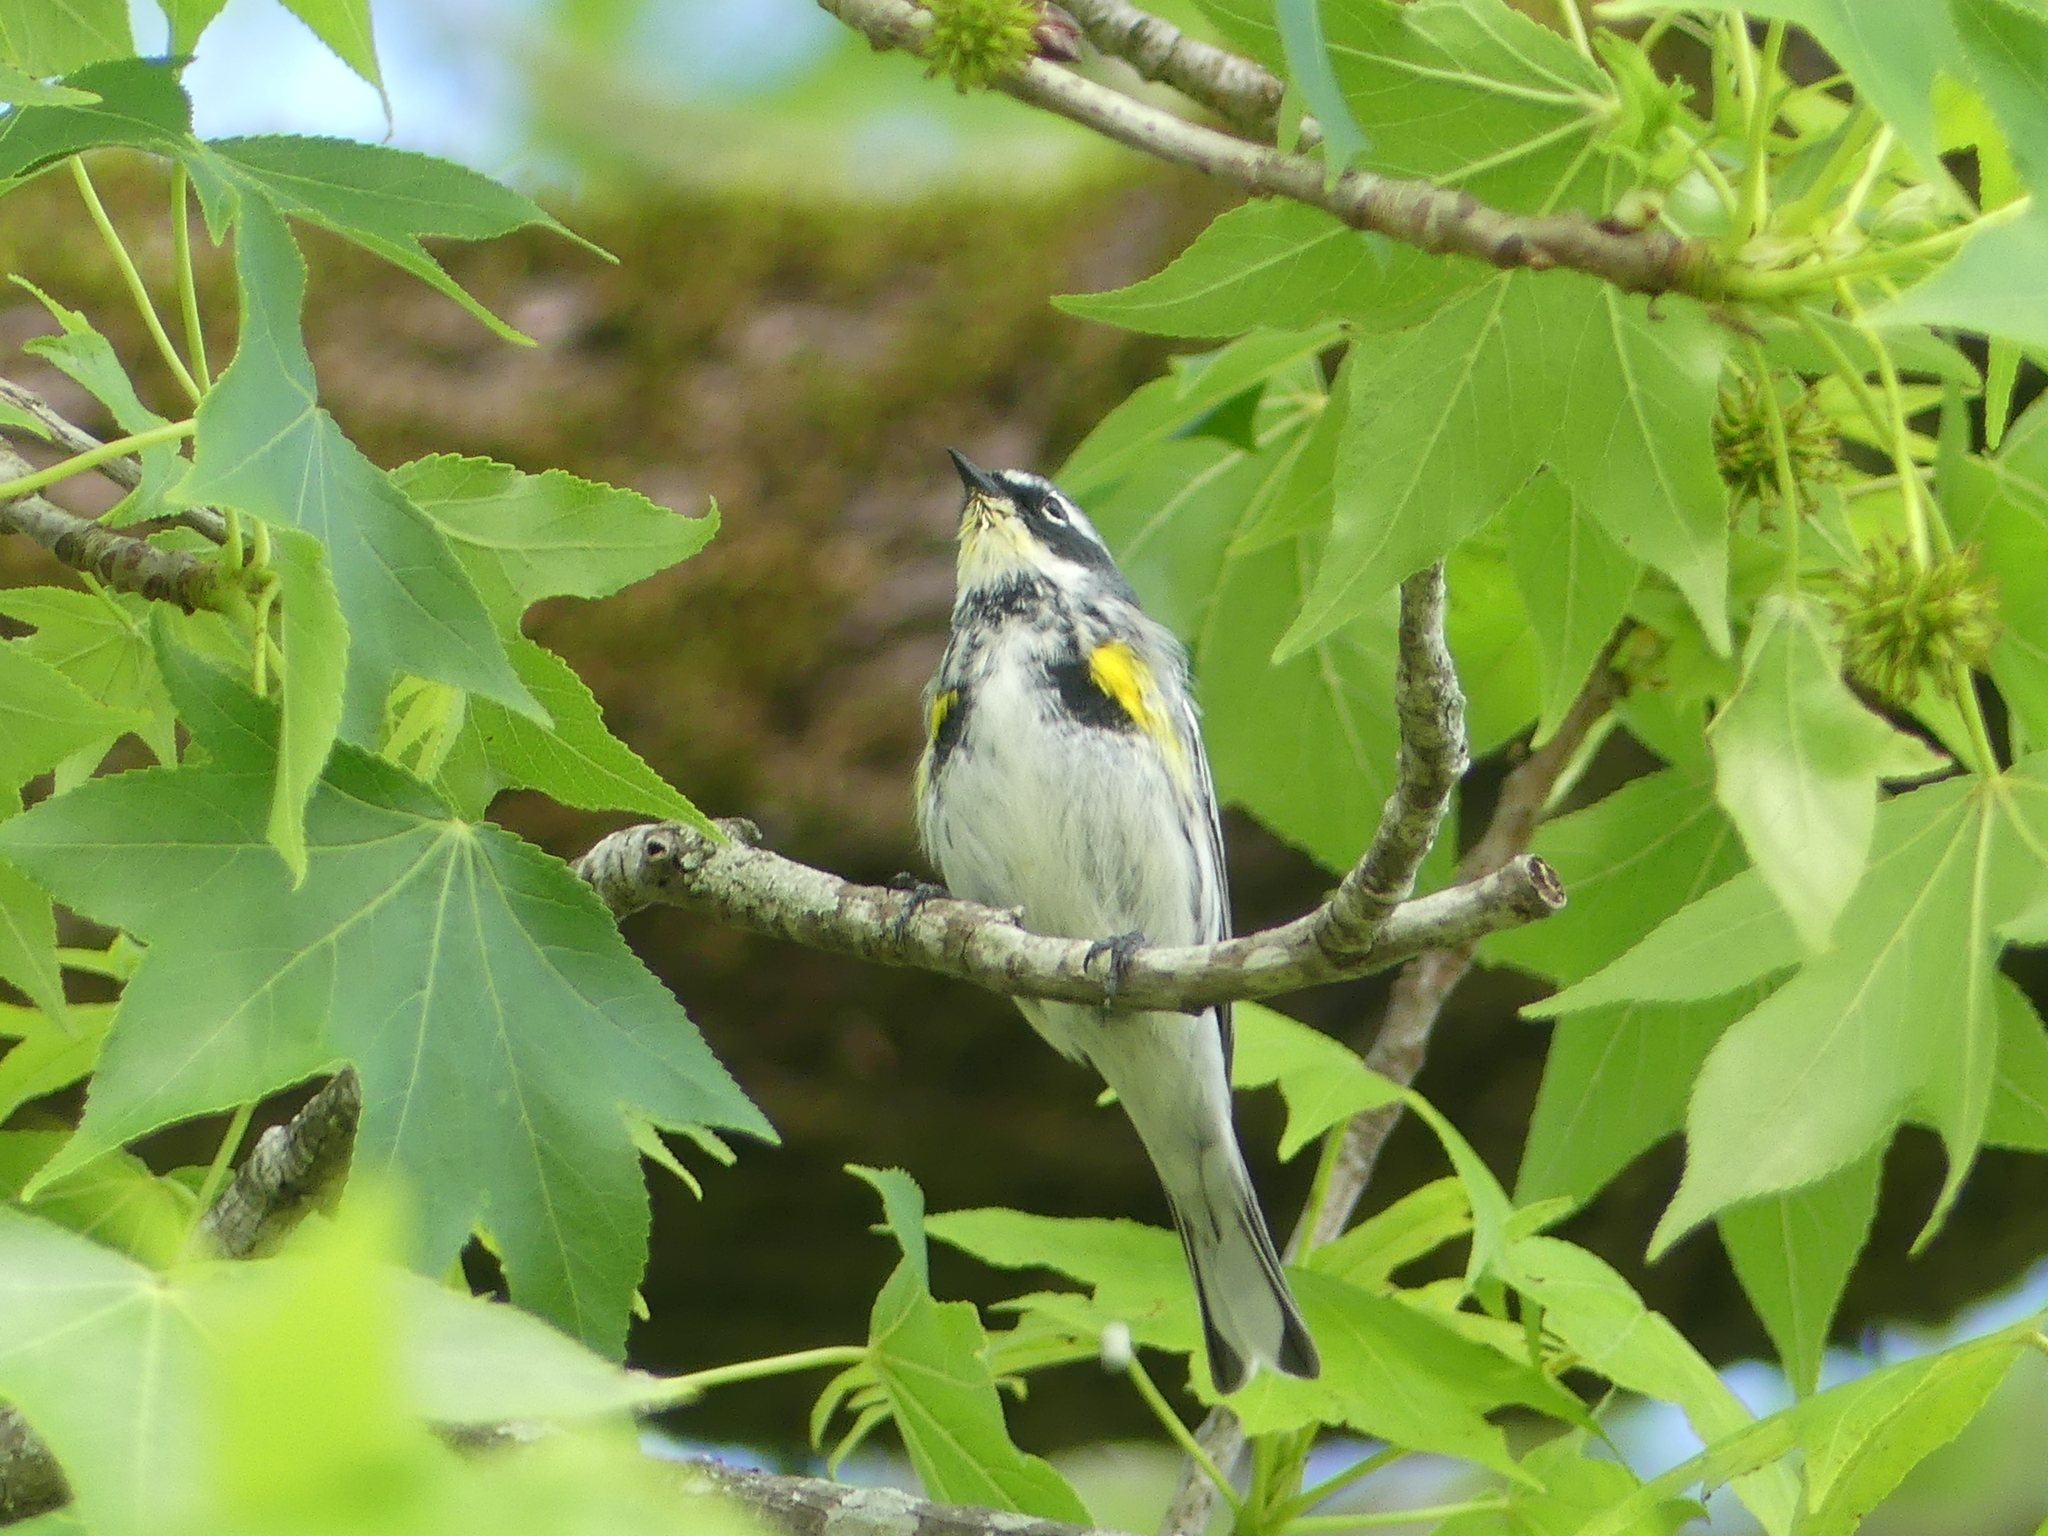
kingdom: Animalia
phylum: Chordata
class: Aves
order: Passeriformes
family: Parulidae
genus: Setophaga
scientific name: Setophaga coronata
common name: Myrtle warbler
